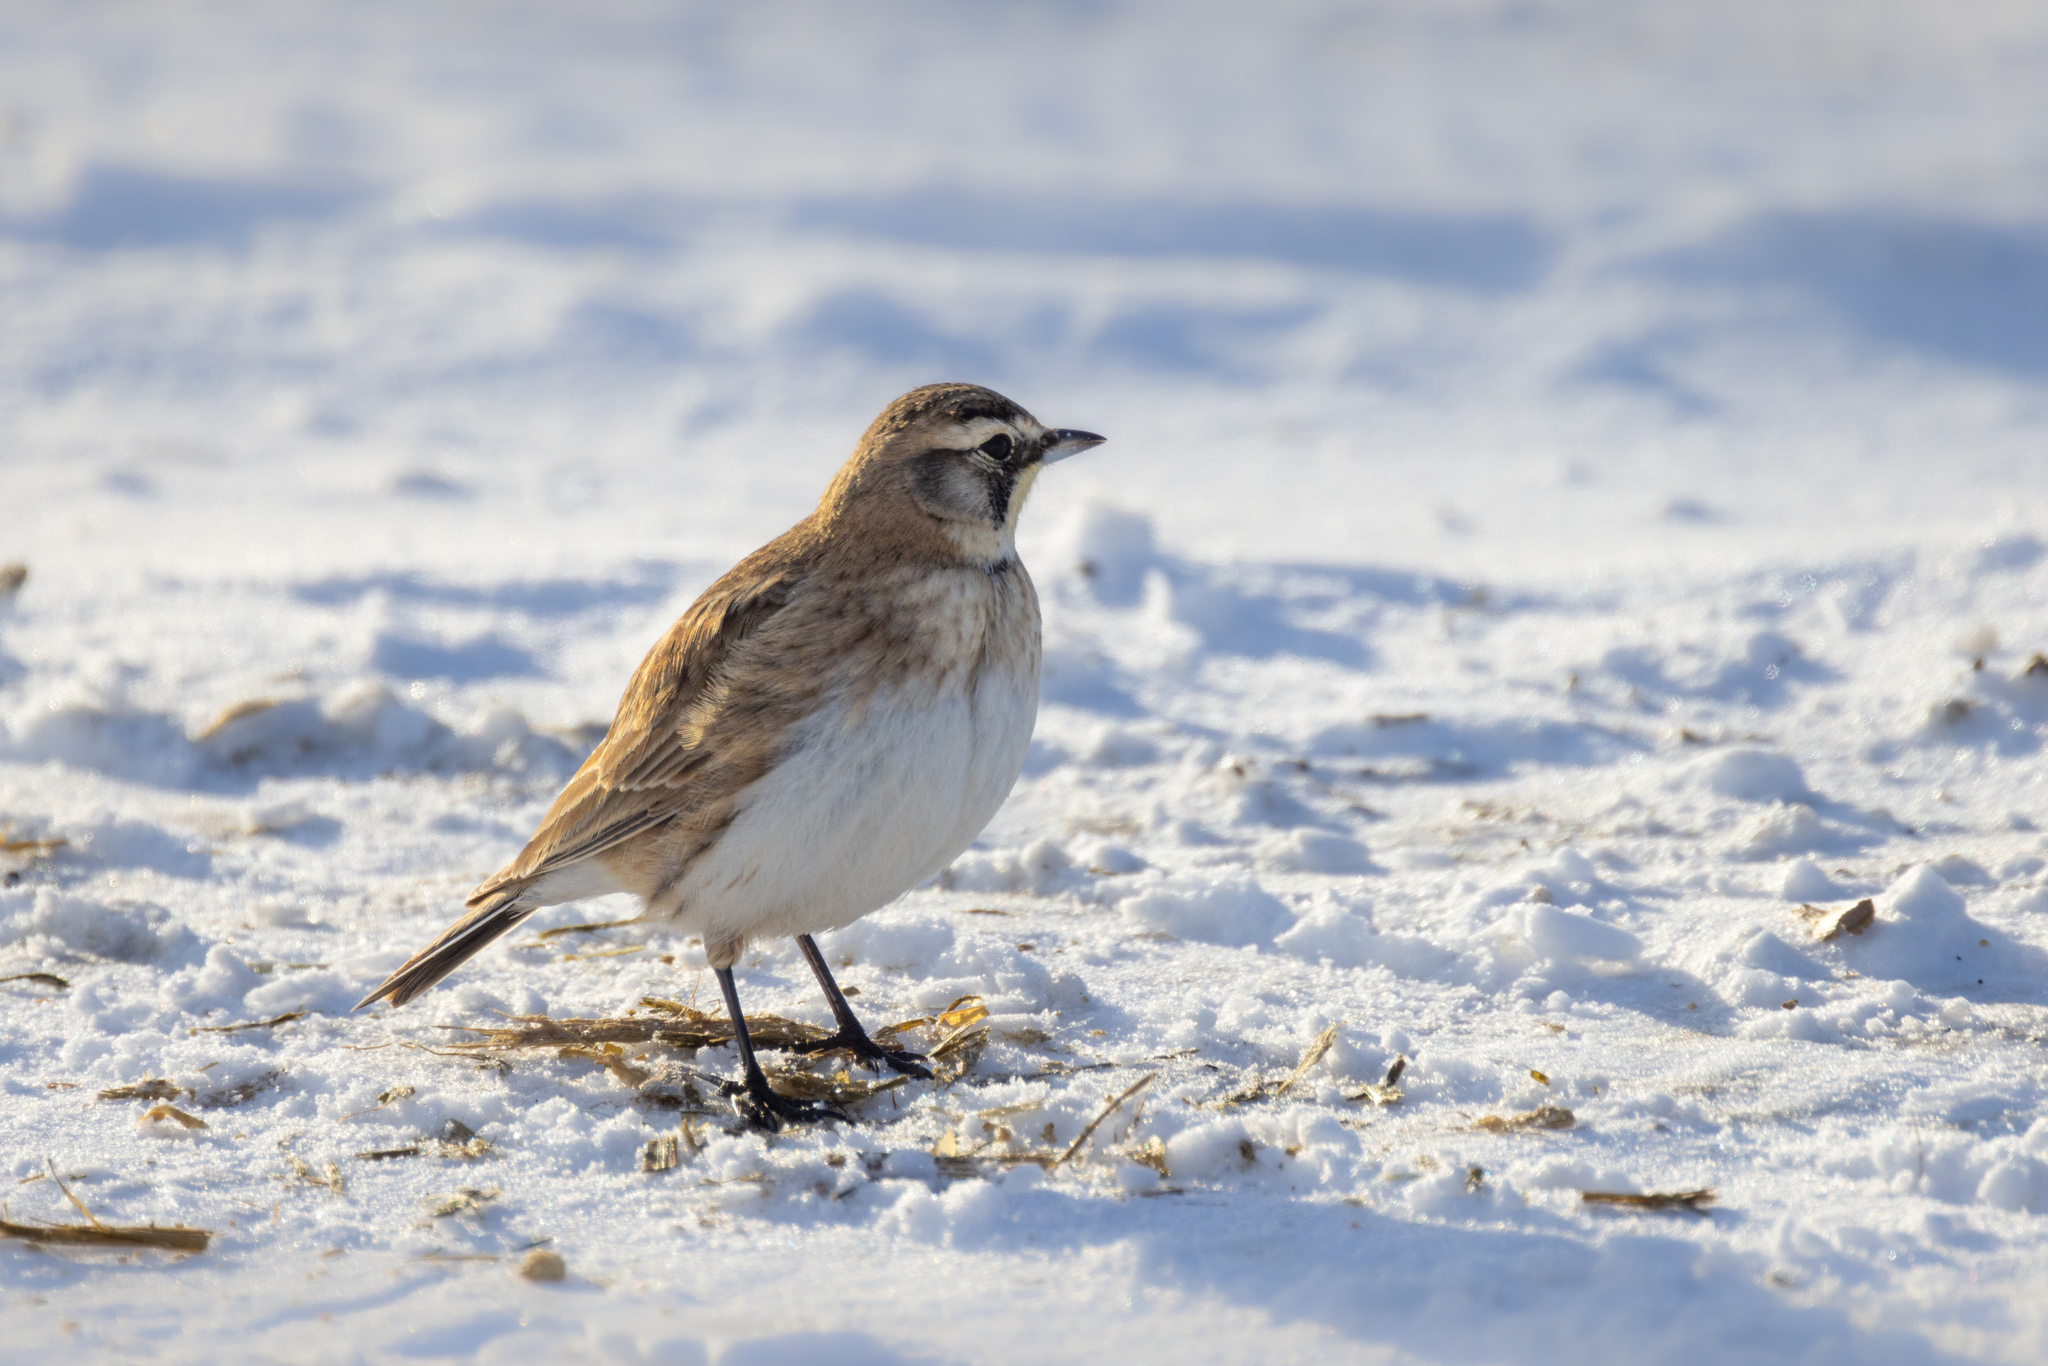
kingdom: Animalia
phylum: Chordata
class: Aves
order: Passeriformes
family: Alaudidae
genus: Eremophila
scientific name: Eremophila alpestris
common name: Horned lark
